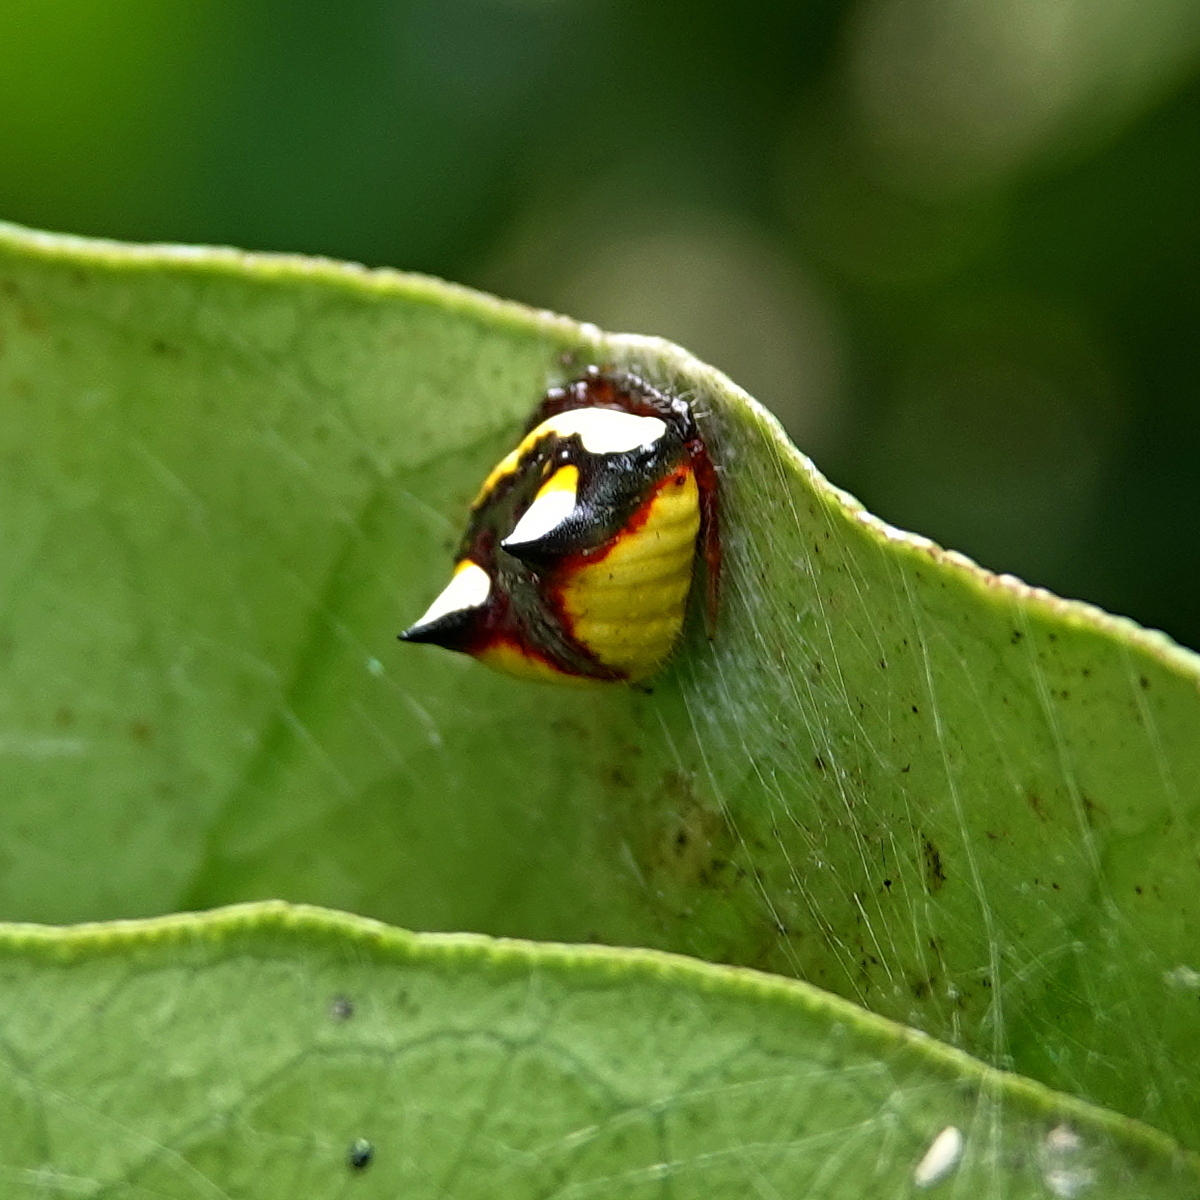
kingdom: Animalia
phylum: Arthropoda
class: Arachnida
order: Araneae
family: Araneidae
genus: Poecilopachys
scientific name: Poecilopachys australasia
